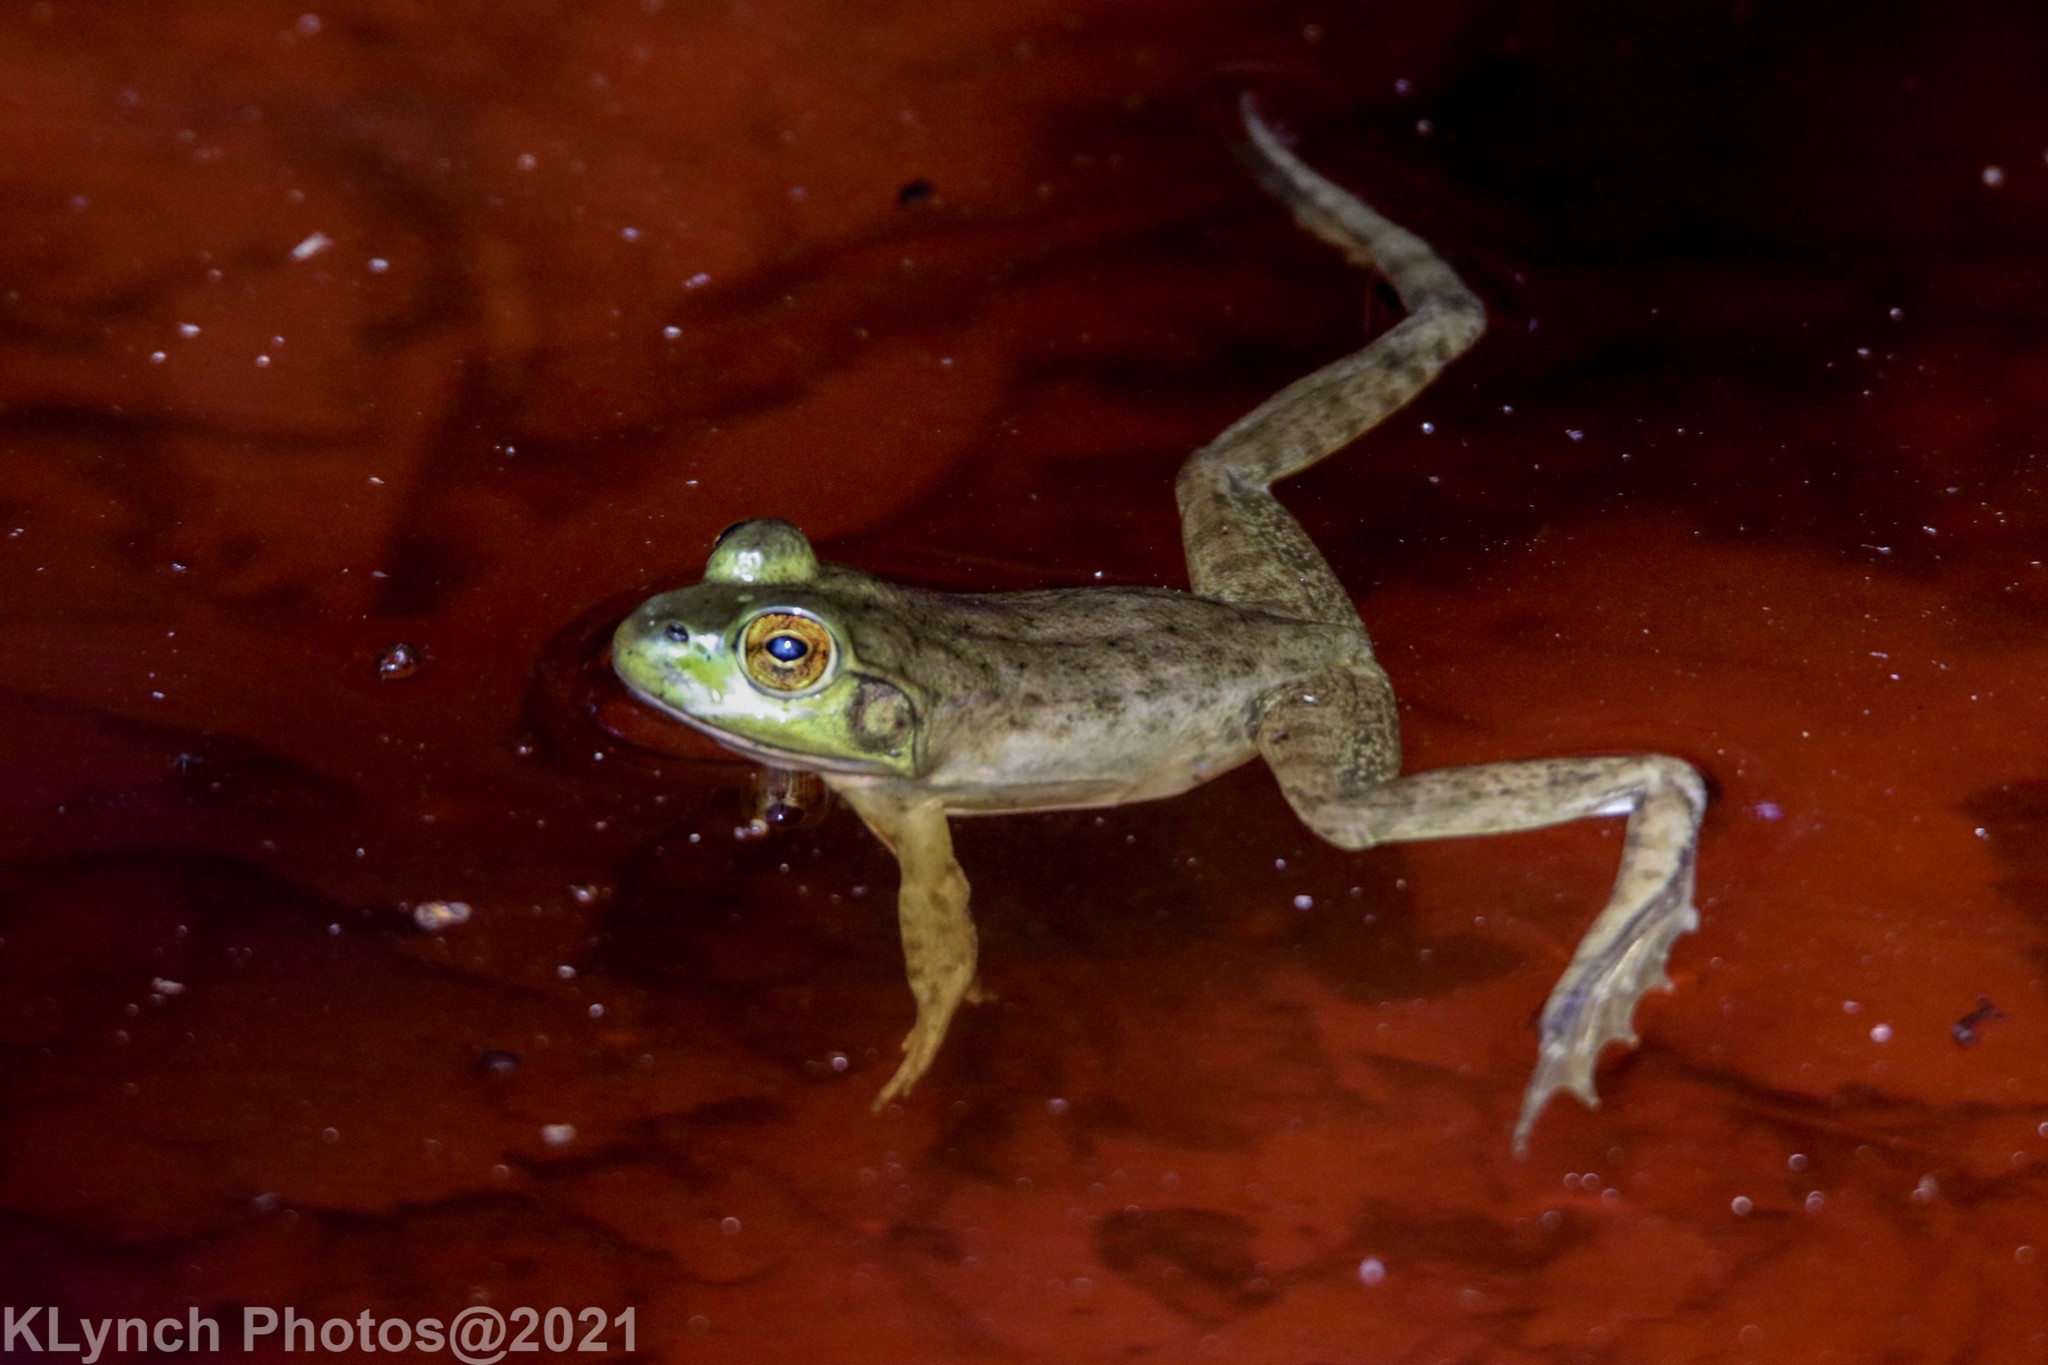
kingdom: Animalia
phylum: Chordata
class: Amphibia
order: Anura
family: Ranidae
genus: Lithobates
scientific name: Lithobates catesbeianus
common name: American bullfrog
